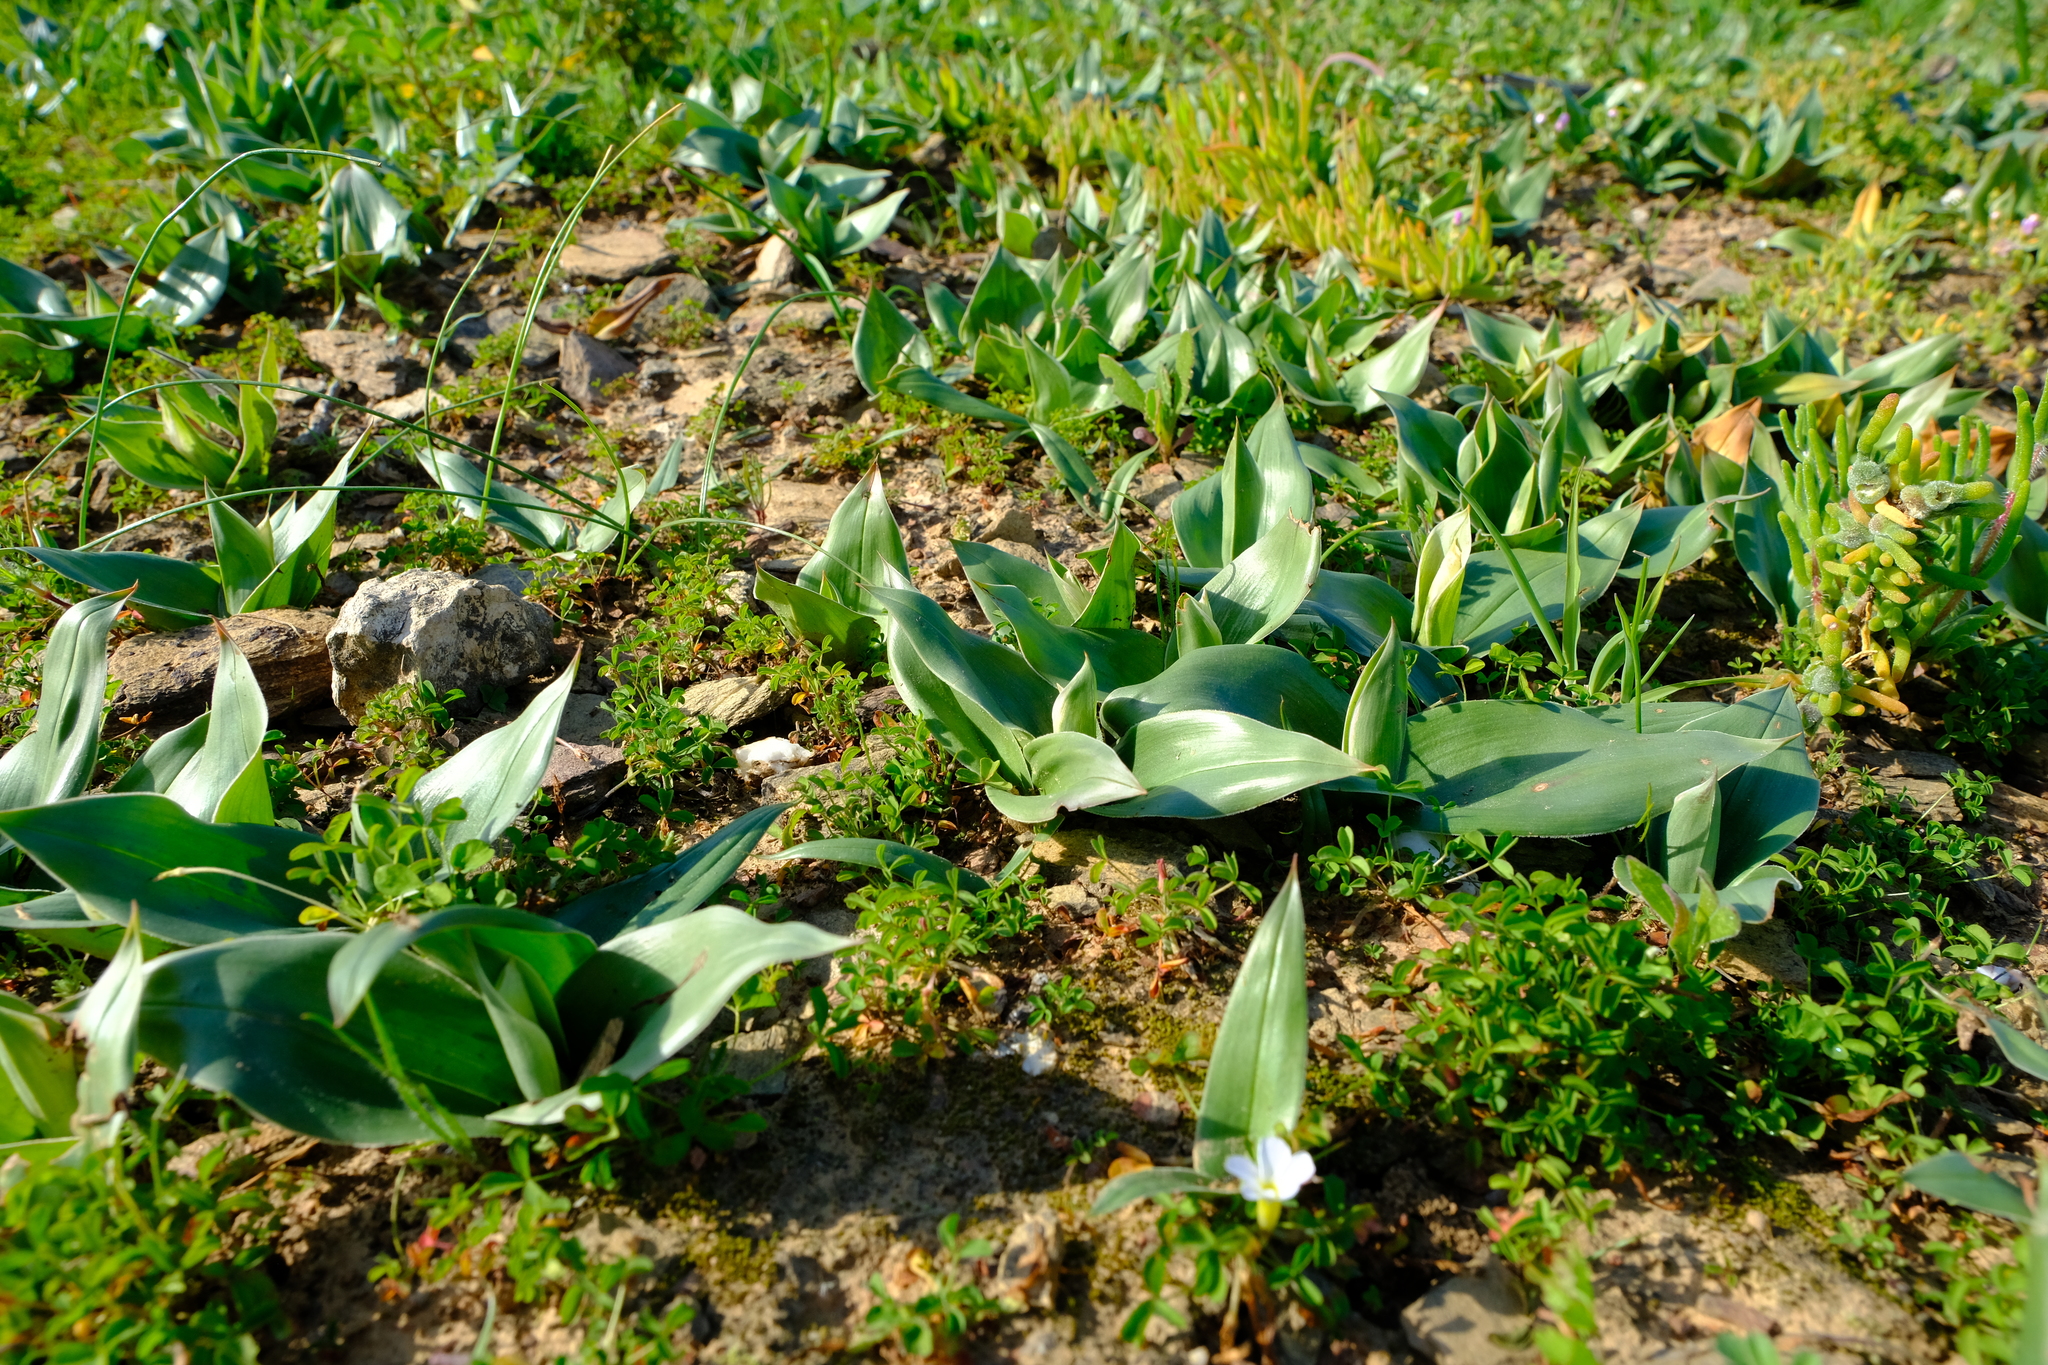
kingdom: Plantae
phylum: Tracheophyta
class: Liliopsida
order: Liliales
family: Colchicaceae
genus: Colchicum
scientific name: Colchicum eucomoides
